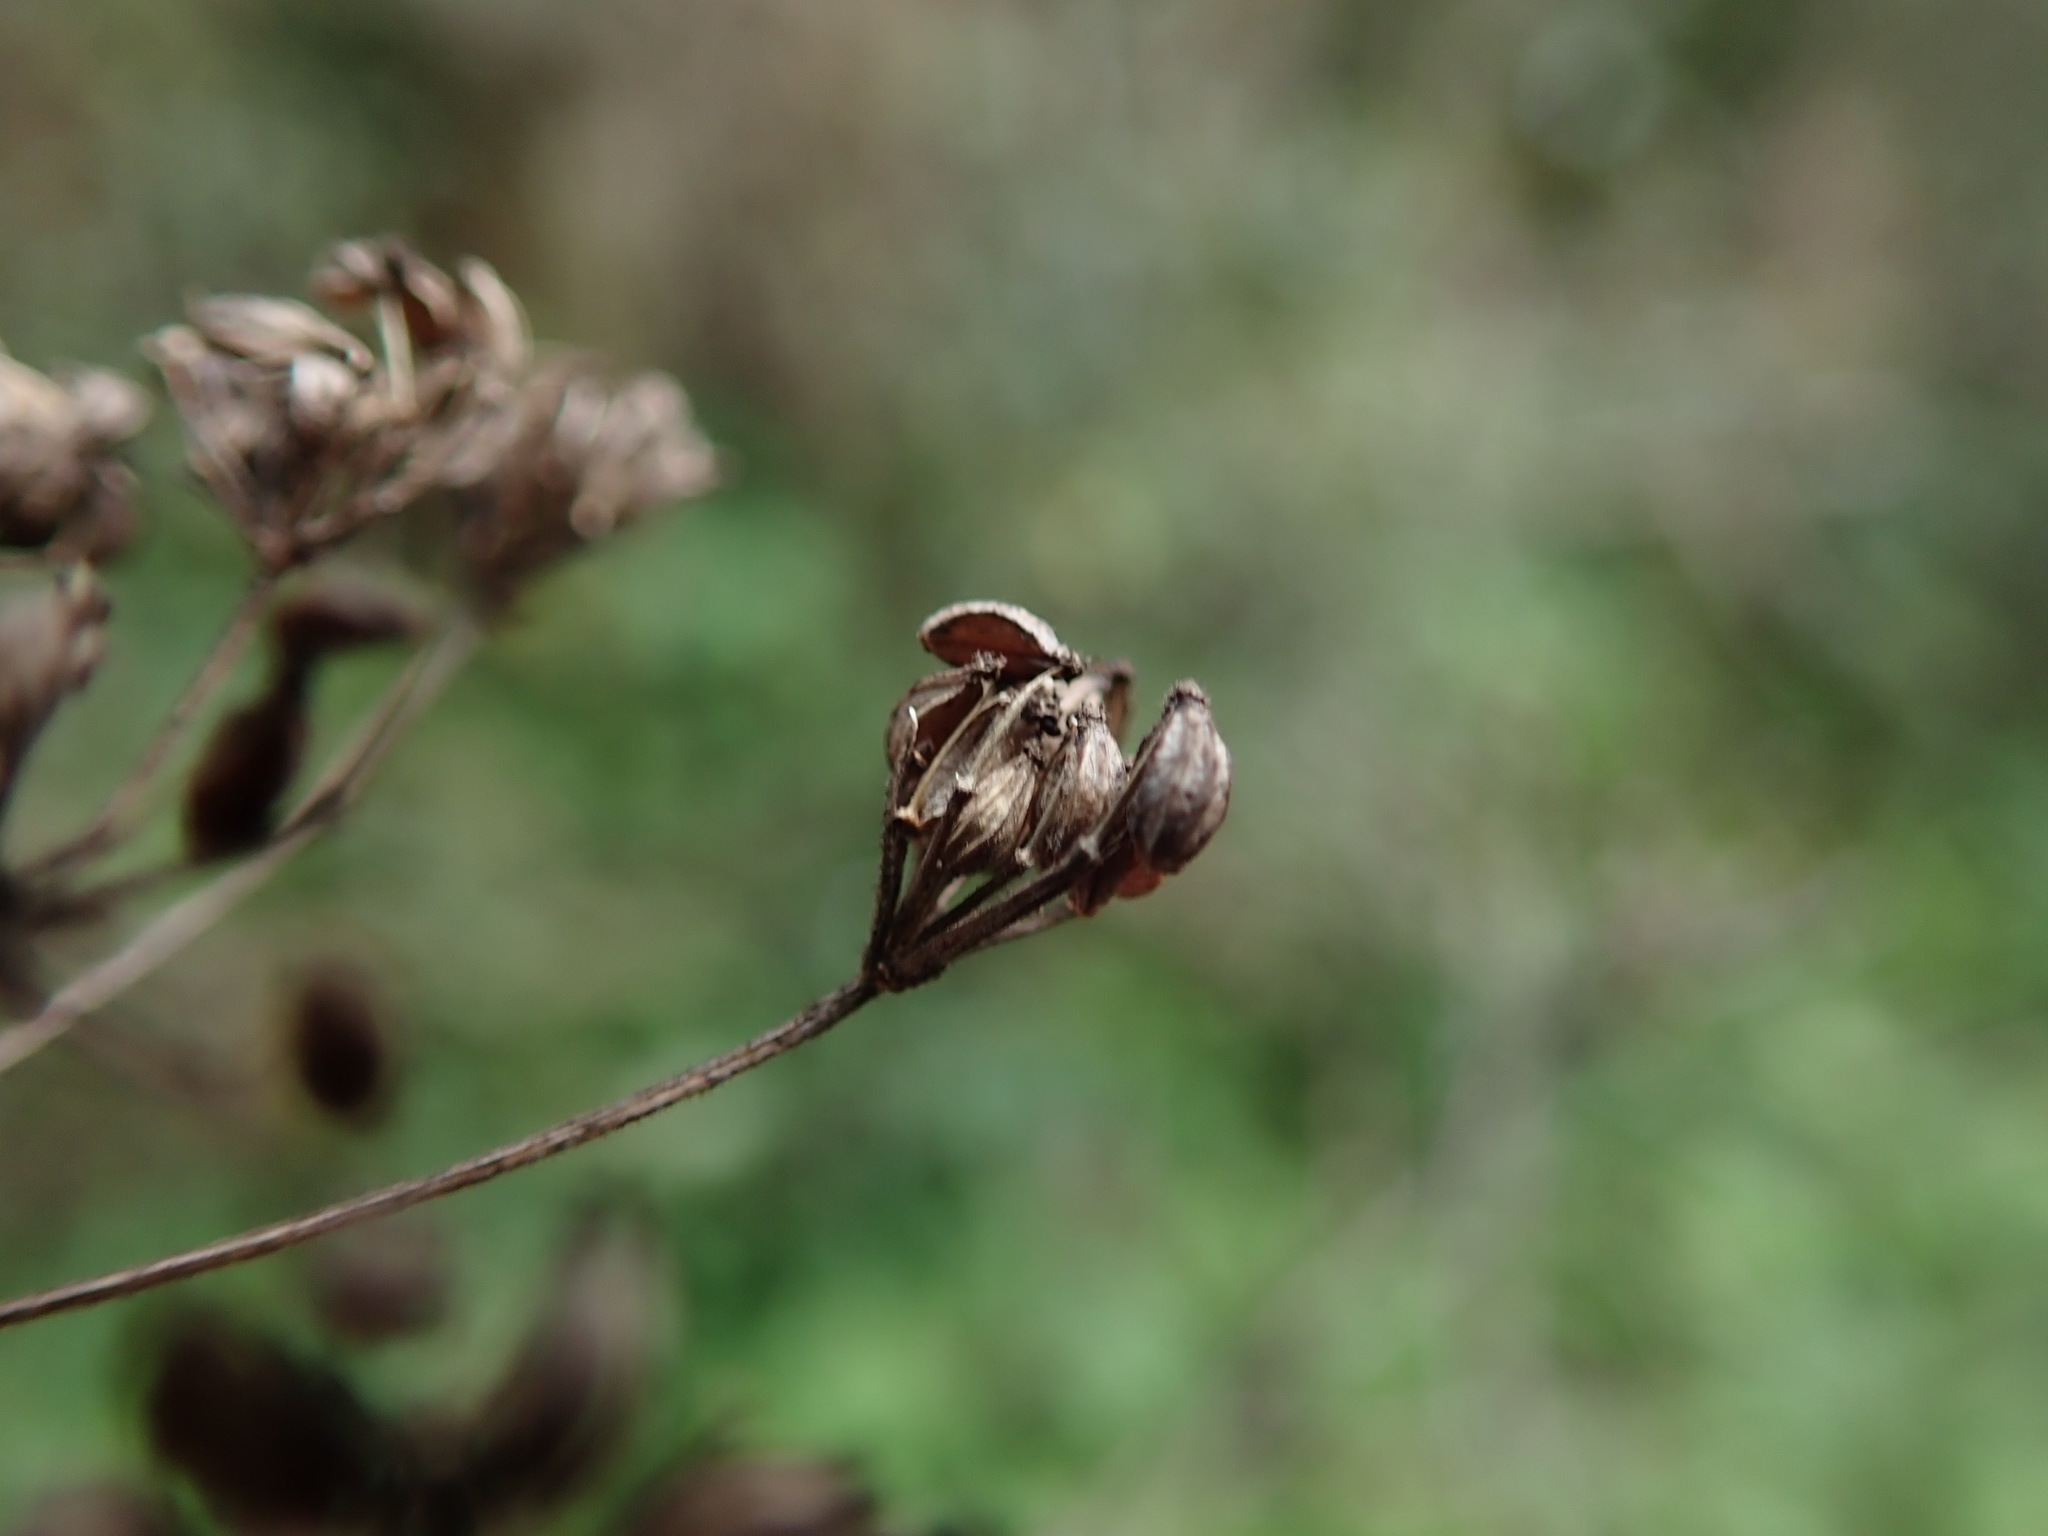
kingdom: Plantae
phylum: Tracheophyta
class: Magnoliopsida
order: Apiales
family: Apiaceae
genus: Conium
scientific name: Conium maculatum
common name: Hemlock
